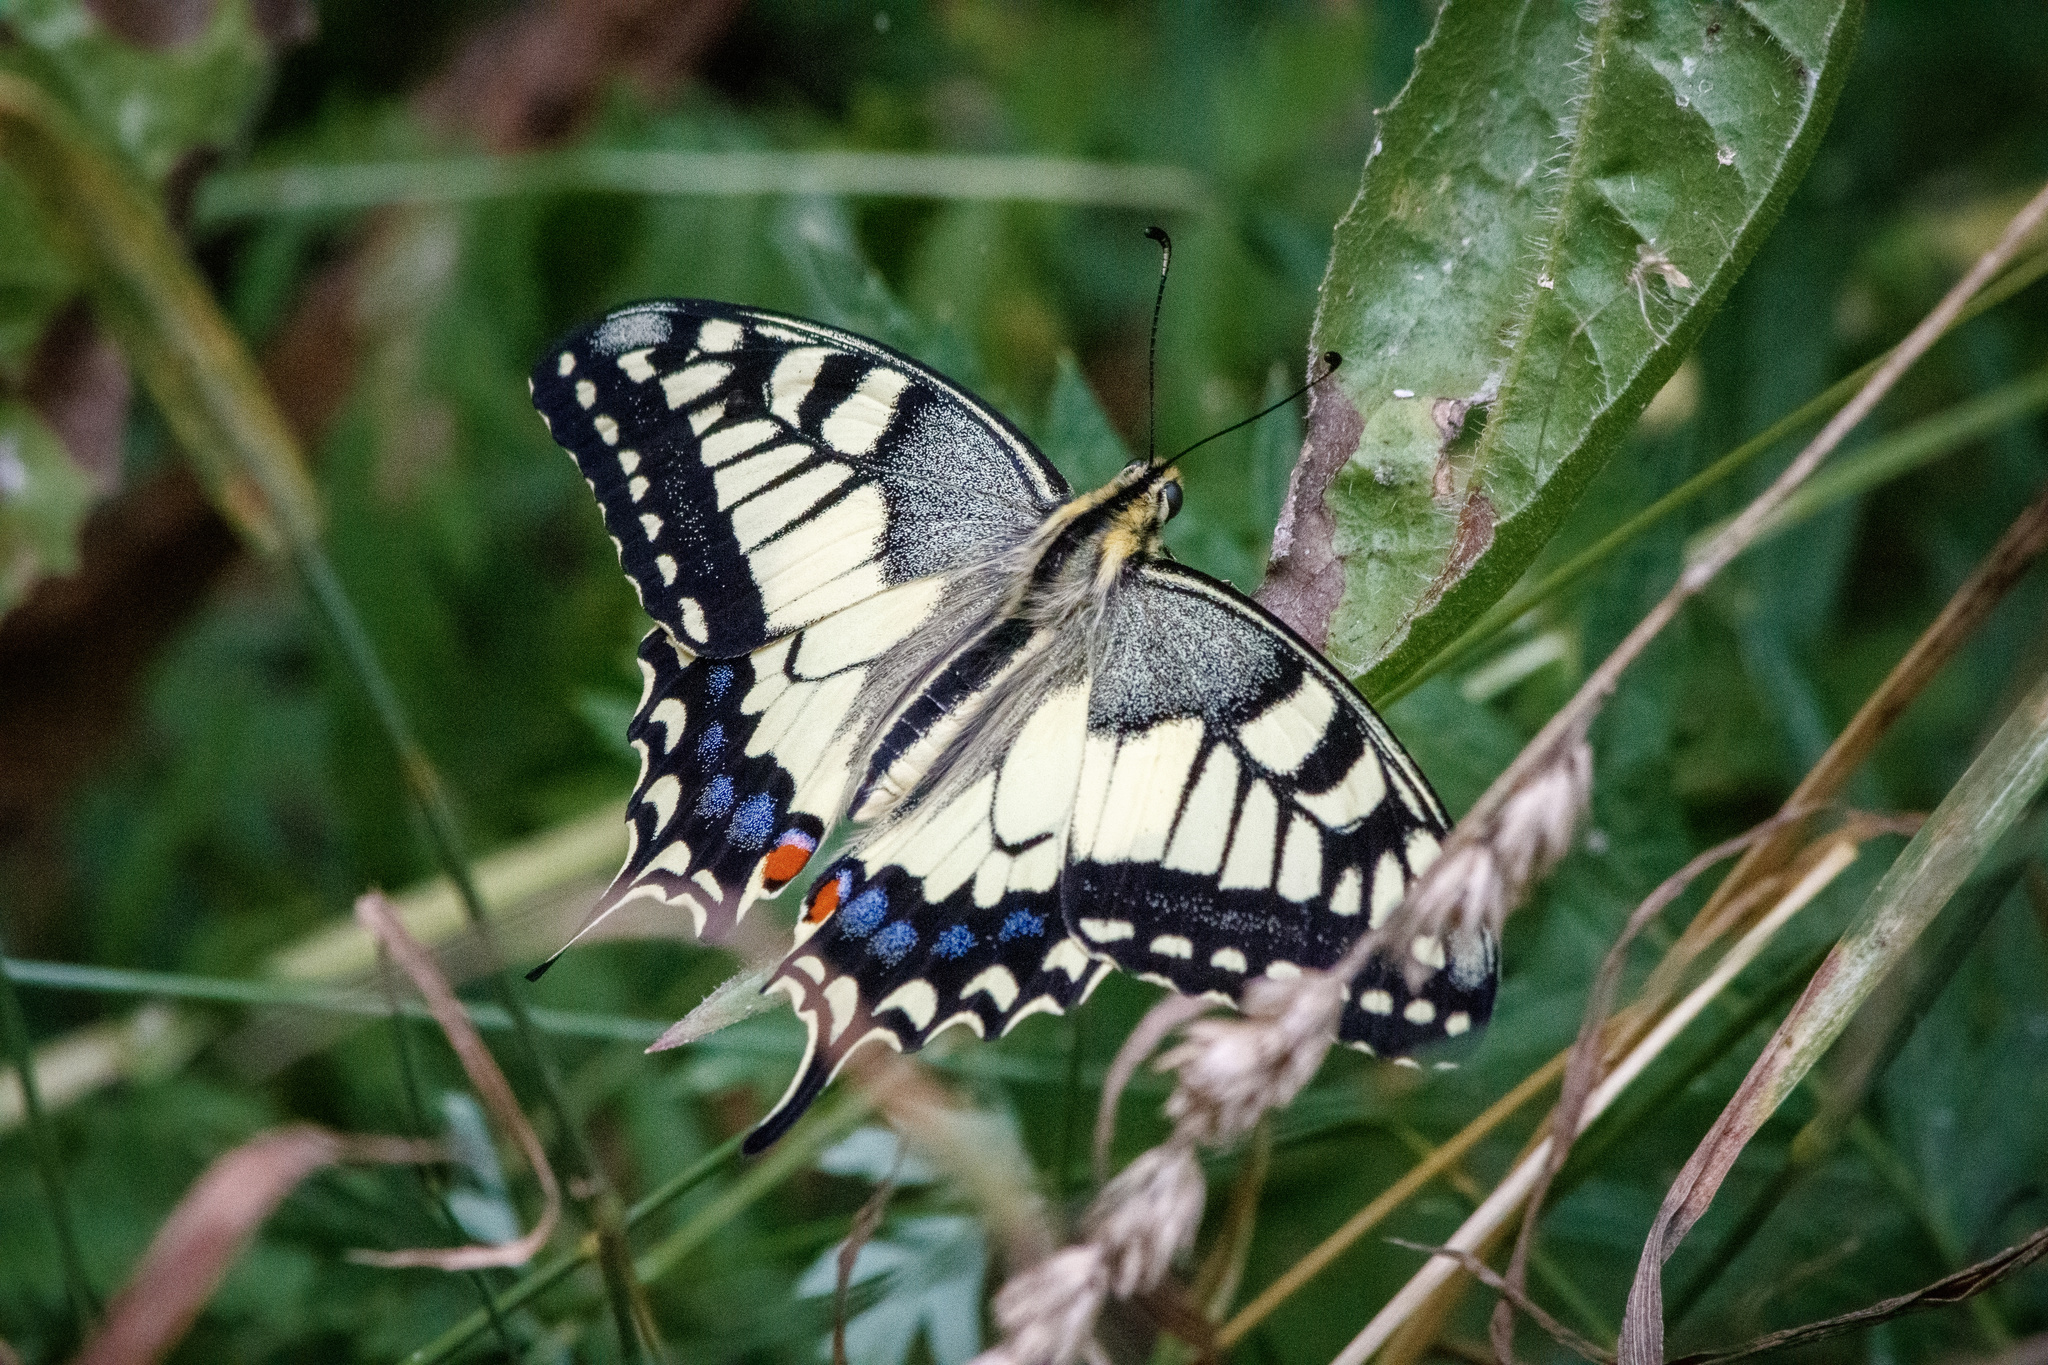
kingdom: Animalia
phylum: Arthropoda
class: Insecta
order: Lepidoptera
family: Papilionidae
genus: Papilio
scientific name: Papilio machaon
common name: Swallowtail
